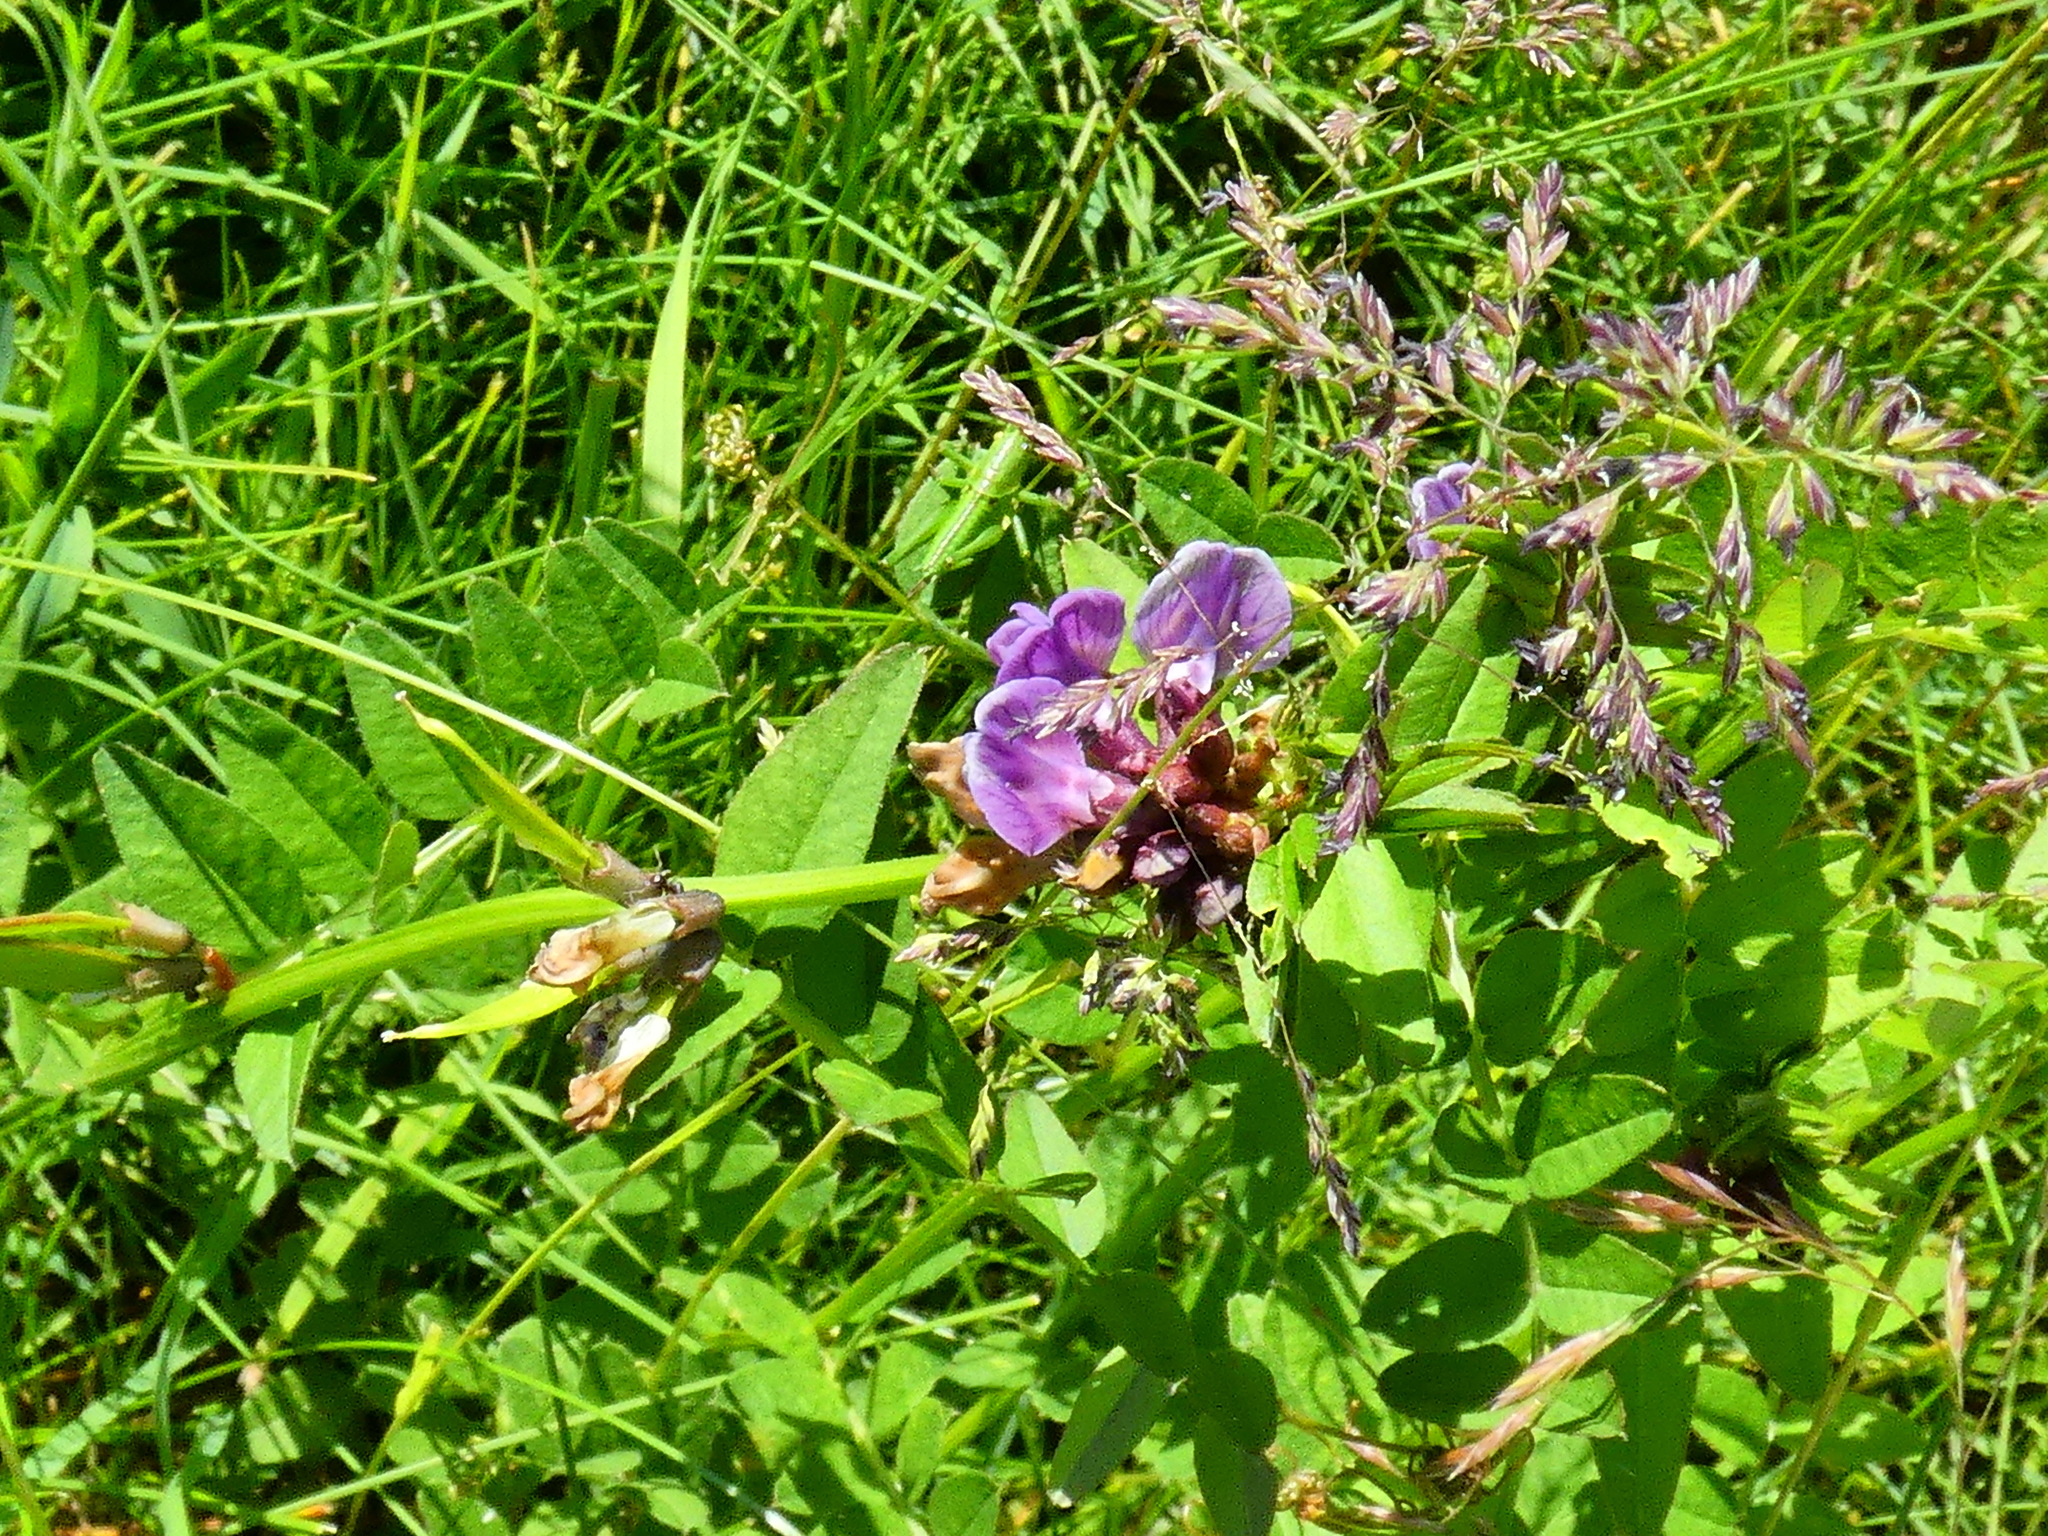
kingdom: Plantae
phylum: Tracheophyta
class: Magnoliopsida
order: Fabales
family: Fabaceae
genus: Vicia
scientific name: Vicia sepium
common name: Bush vetch
